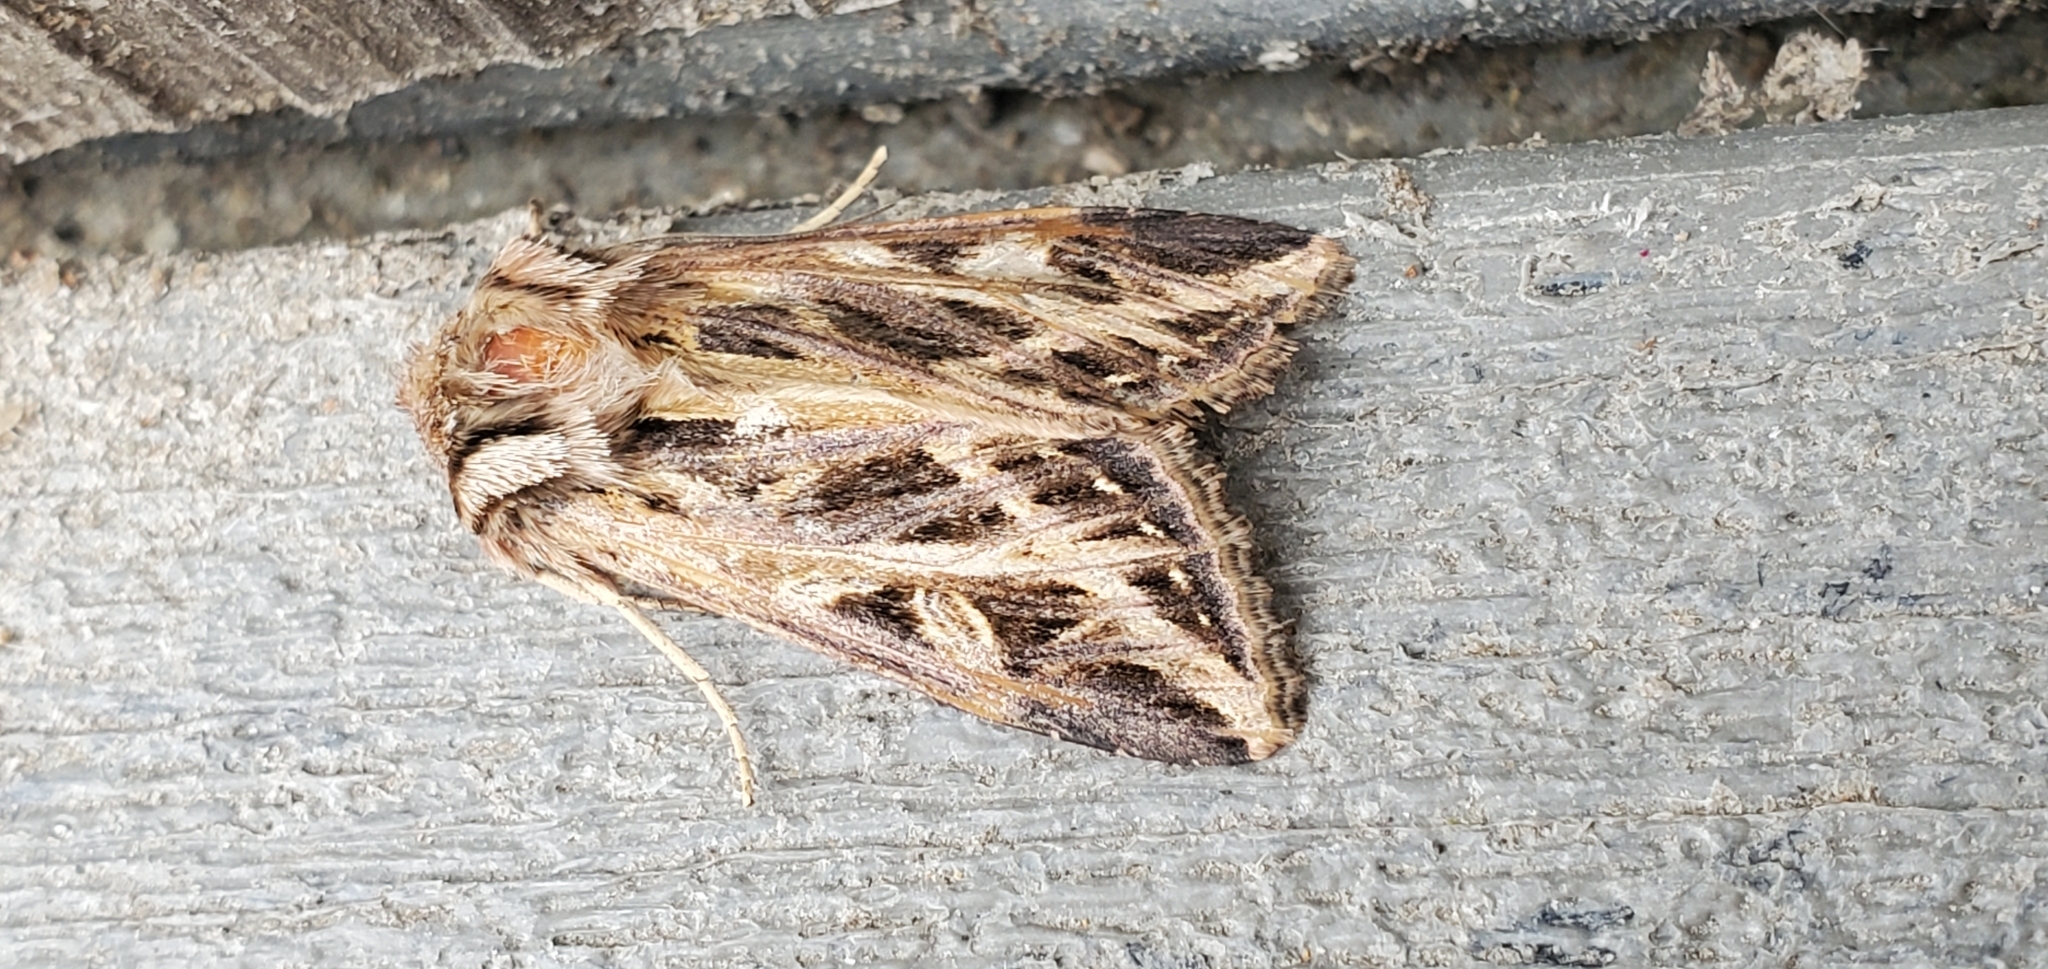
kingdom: Animalia
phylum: Arthropoda
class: Insecta
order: Lepidoptera
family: Noctuidae
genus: Dargida
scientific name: Dargida procinctus
